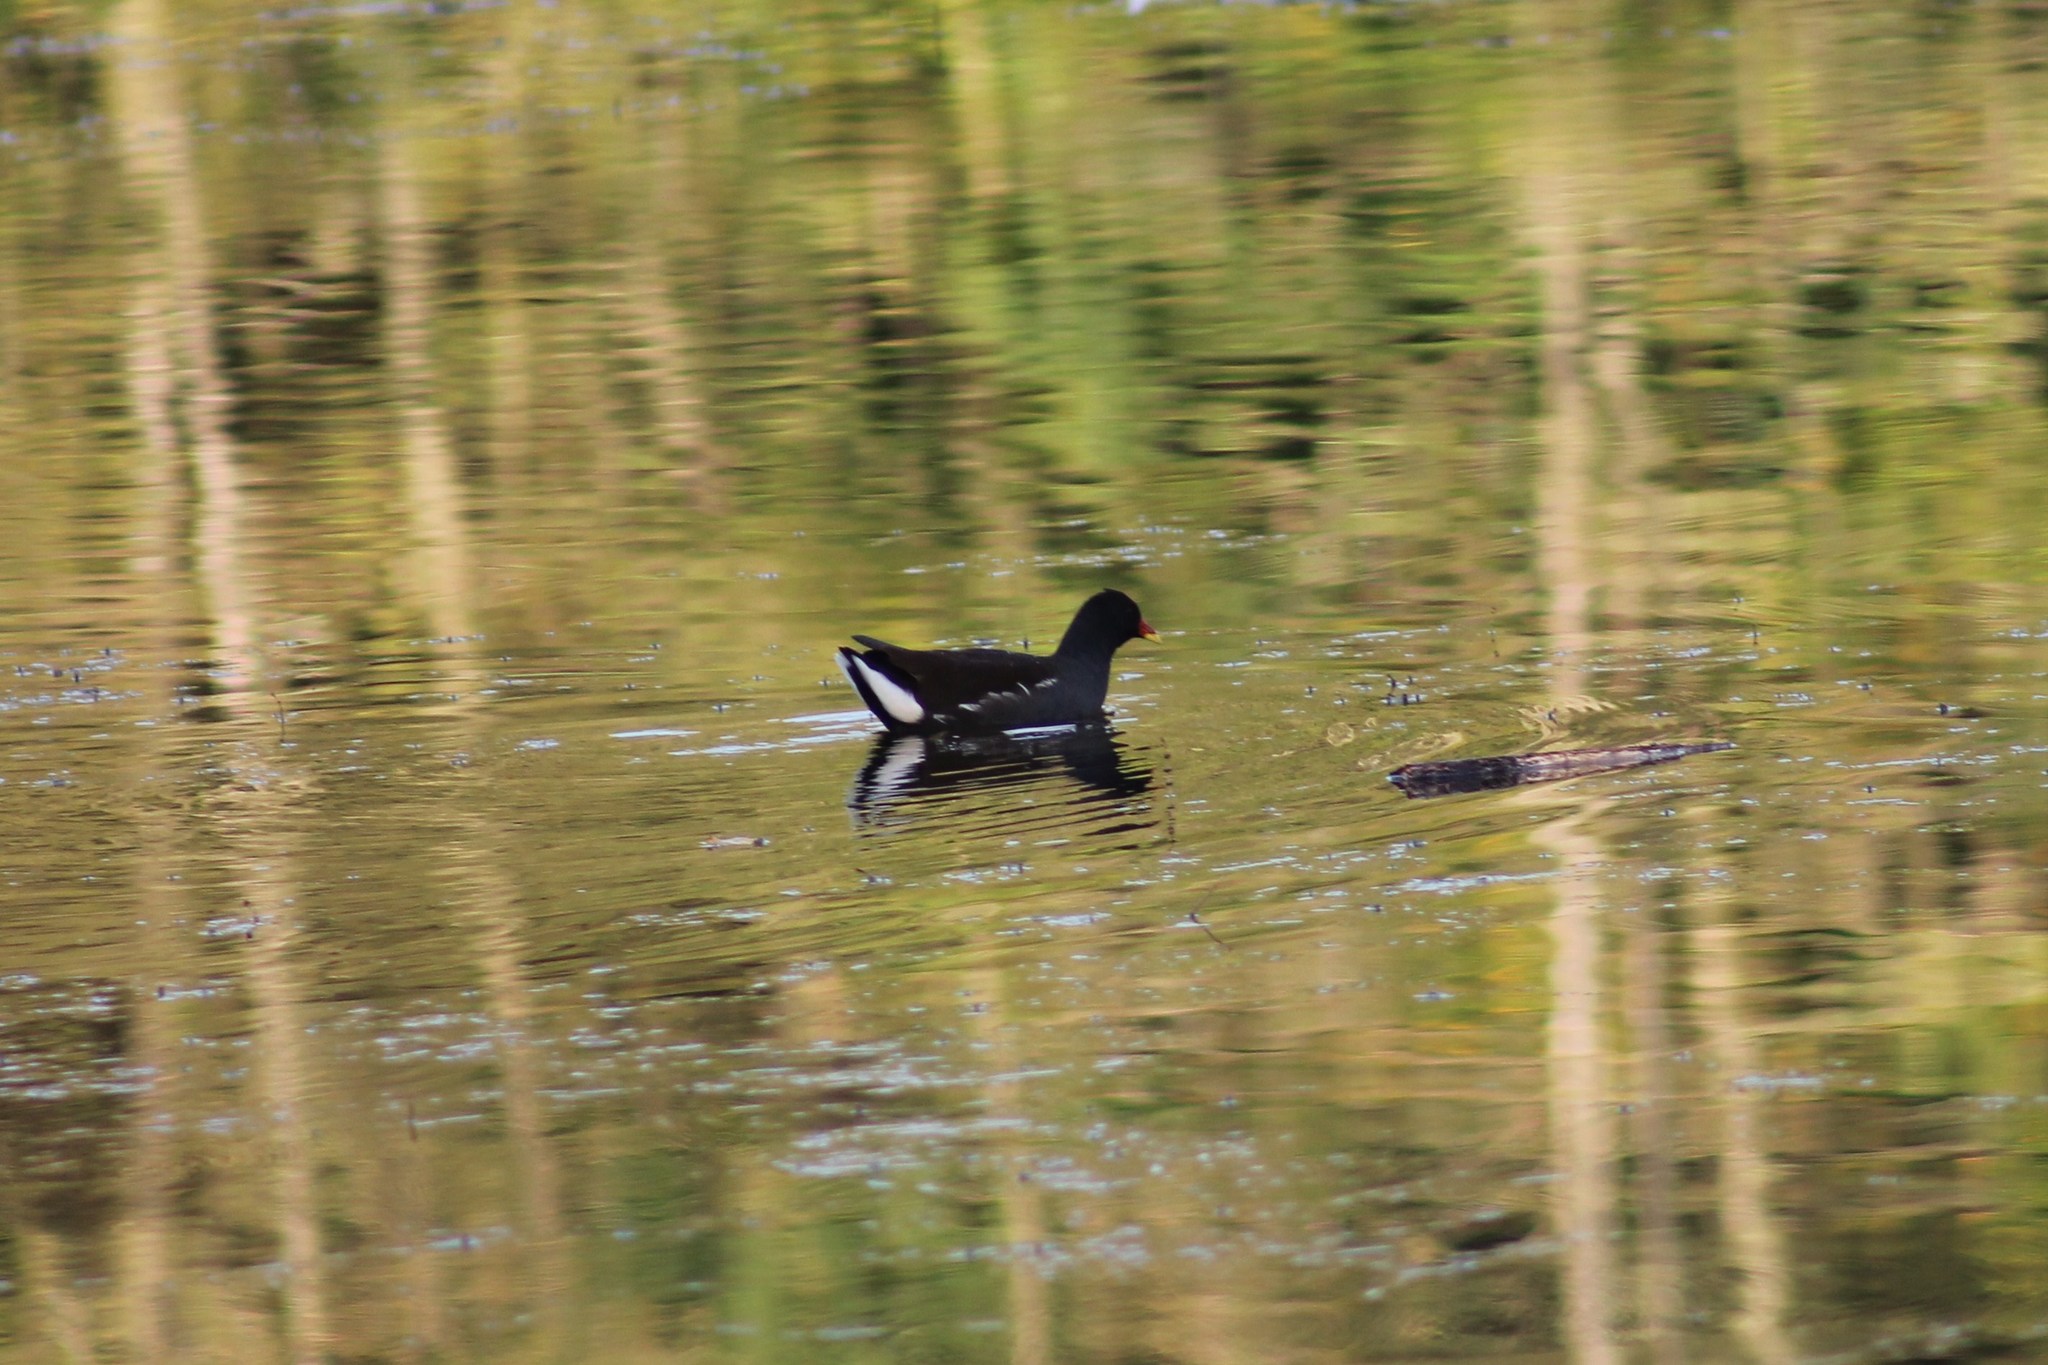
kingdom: Animalia
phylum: Chordata
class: Aves
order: Gruiformes
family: Rallidae
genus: Gallinula
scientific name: Gallinula chloropus
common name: Common moorhen
